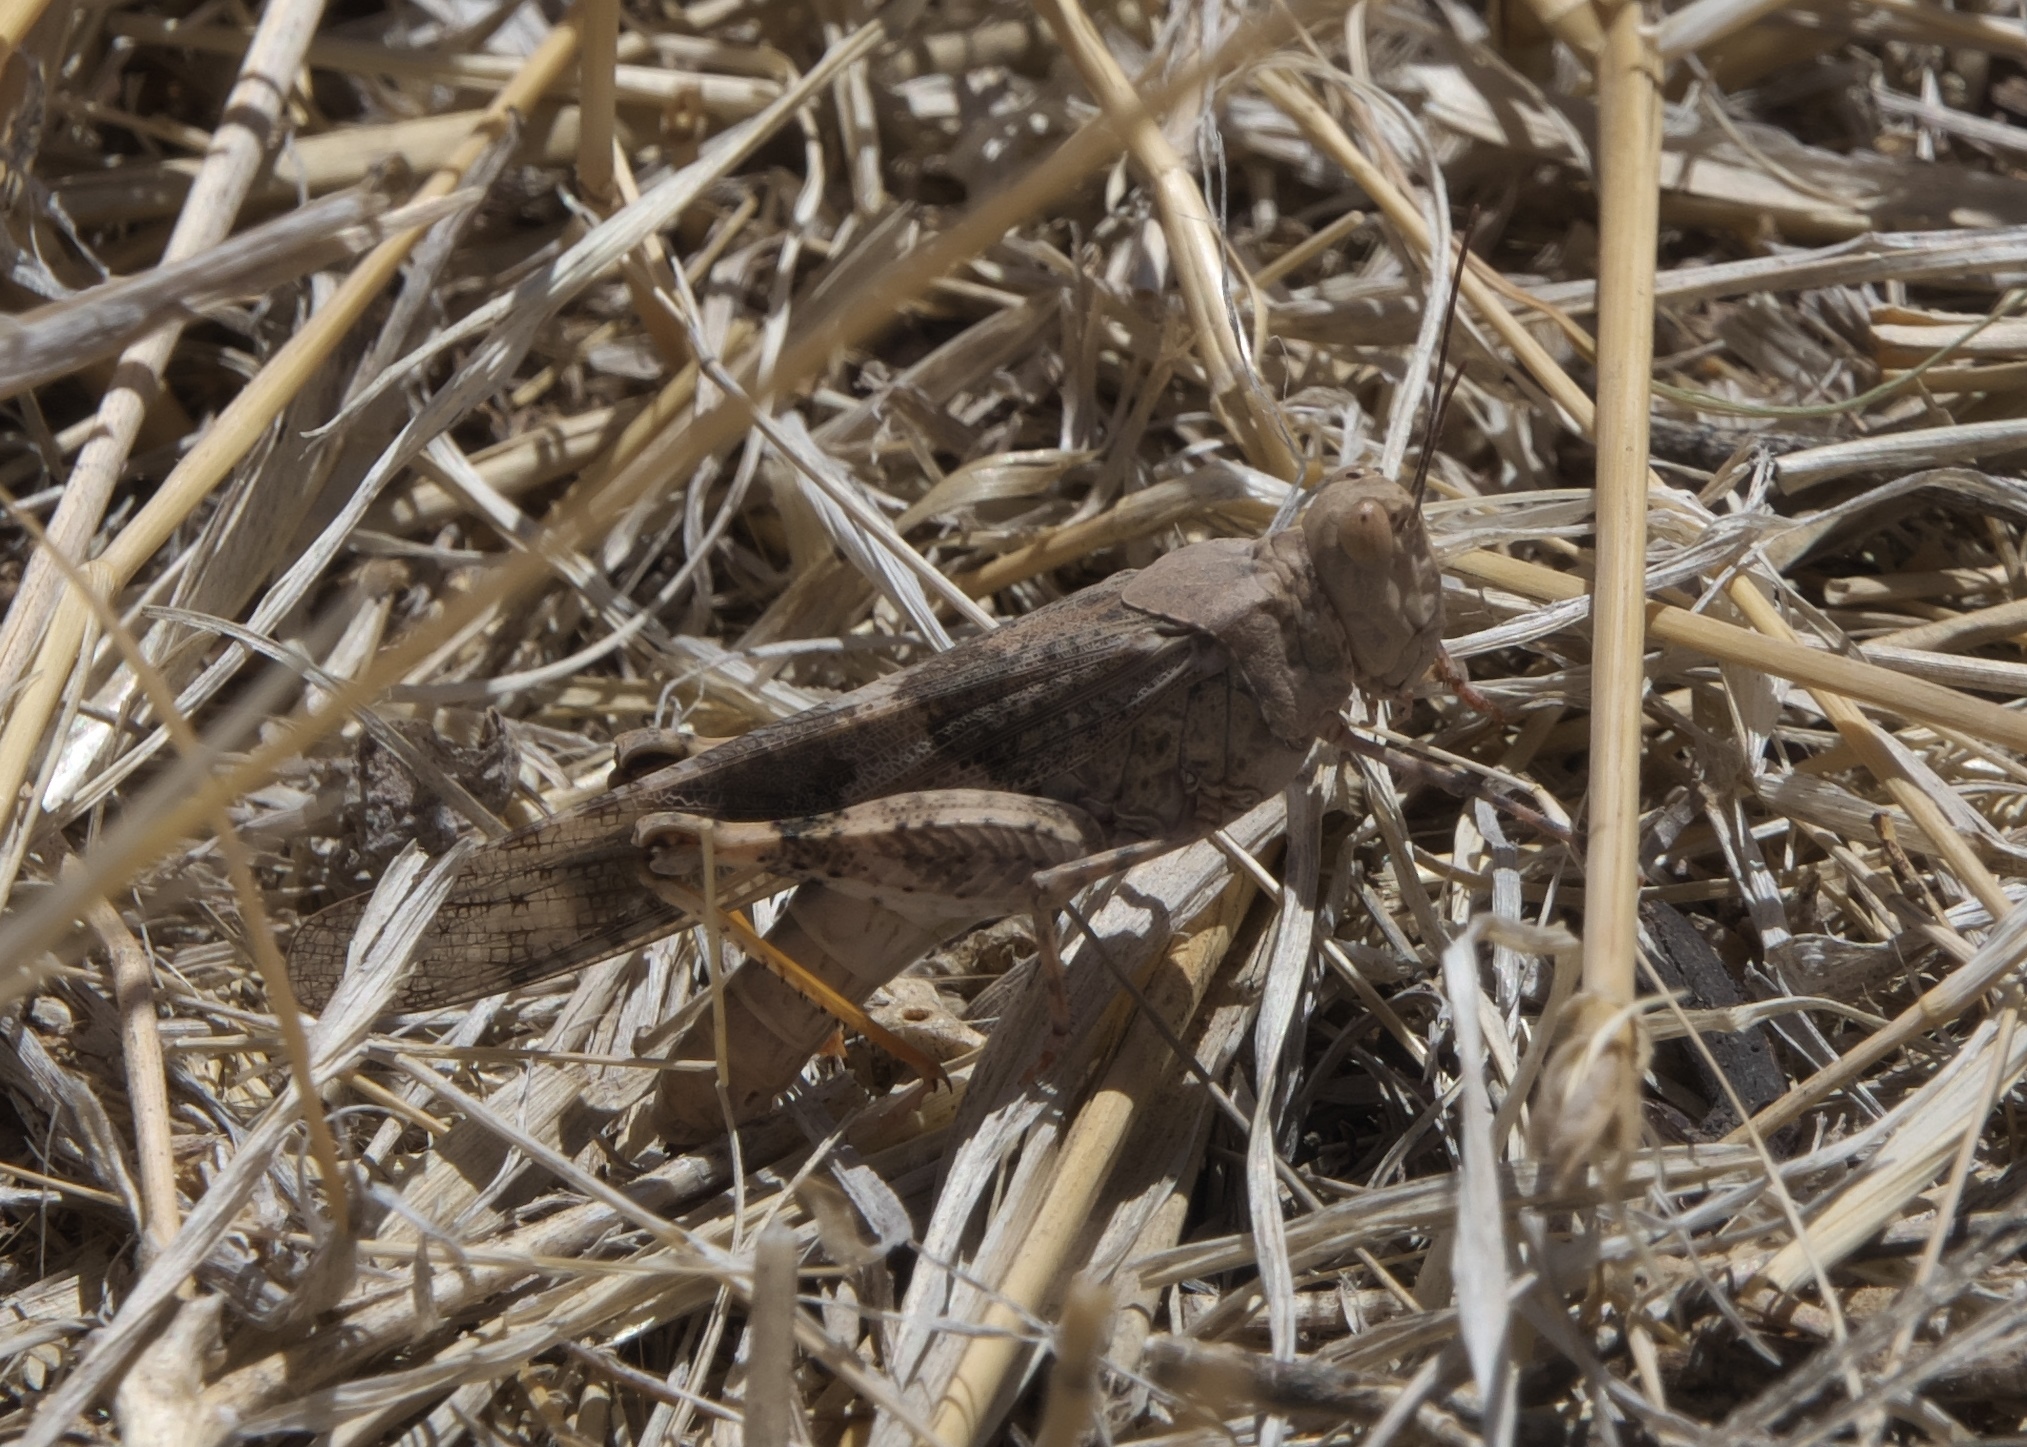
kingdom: Animalia
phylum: Arthropoda
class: Insecta
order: Orthoptera
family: Acrididae
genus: Trimerotropis
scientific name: Trimerotropis pallidipennis
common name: Pallid-winged grasshopper
